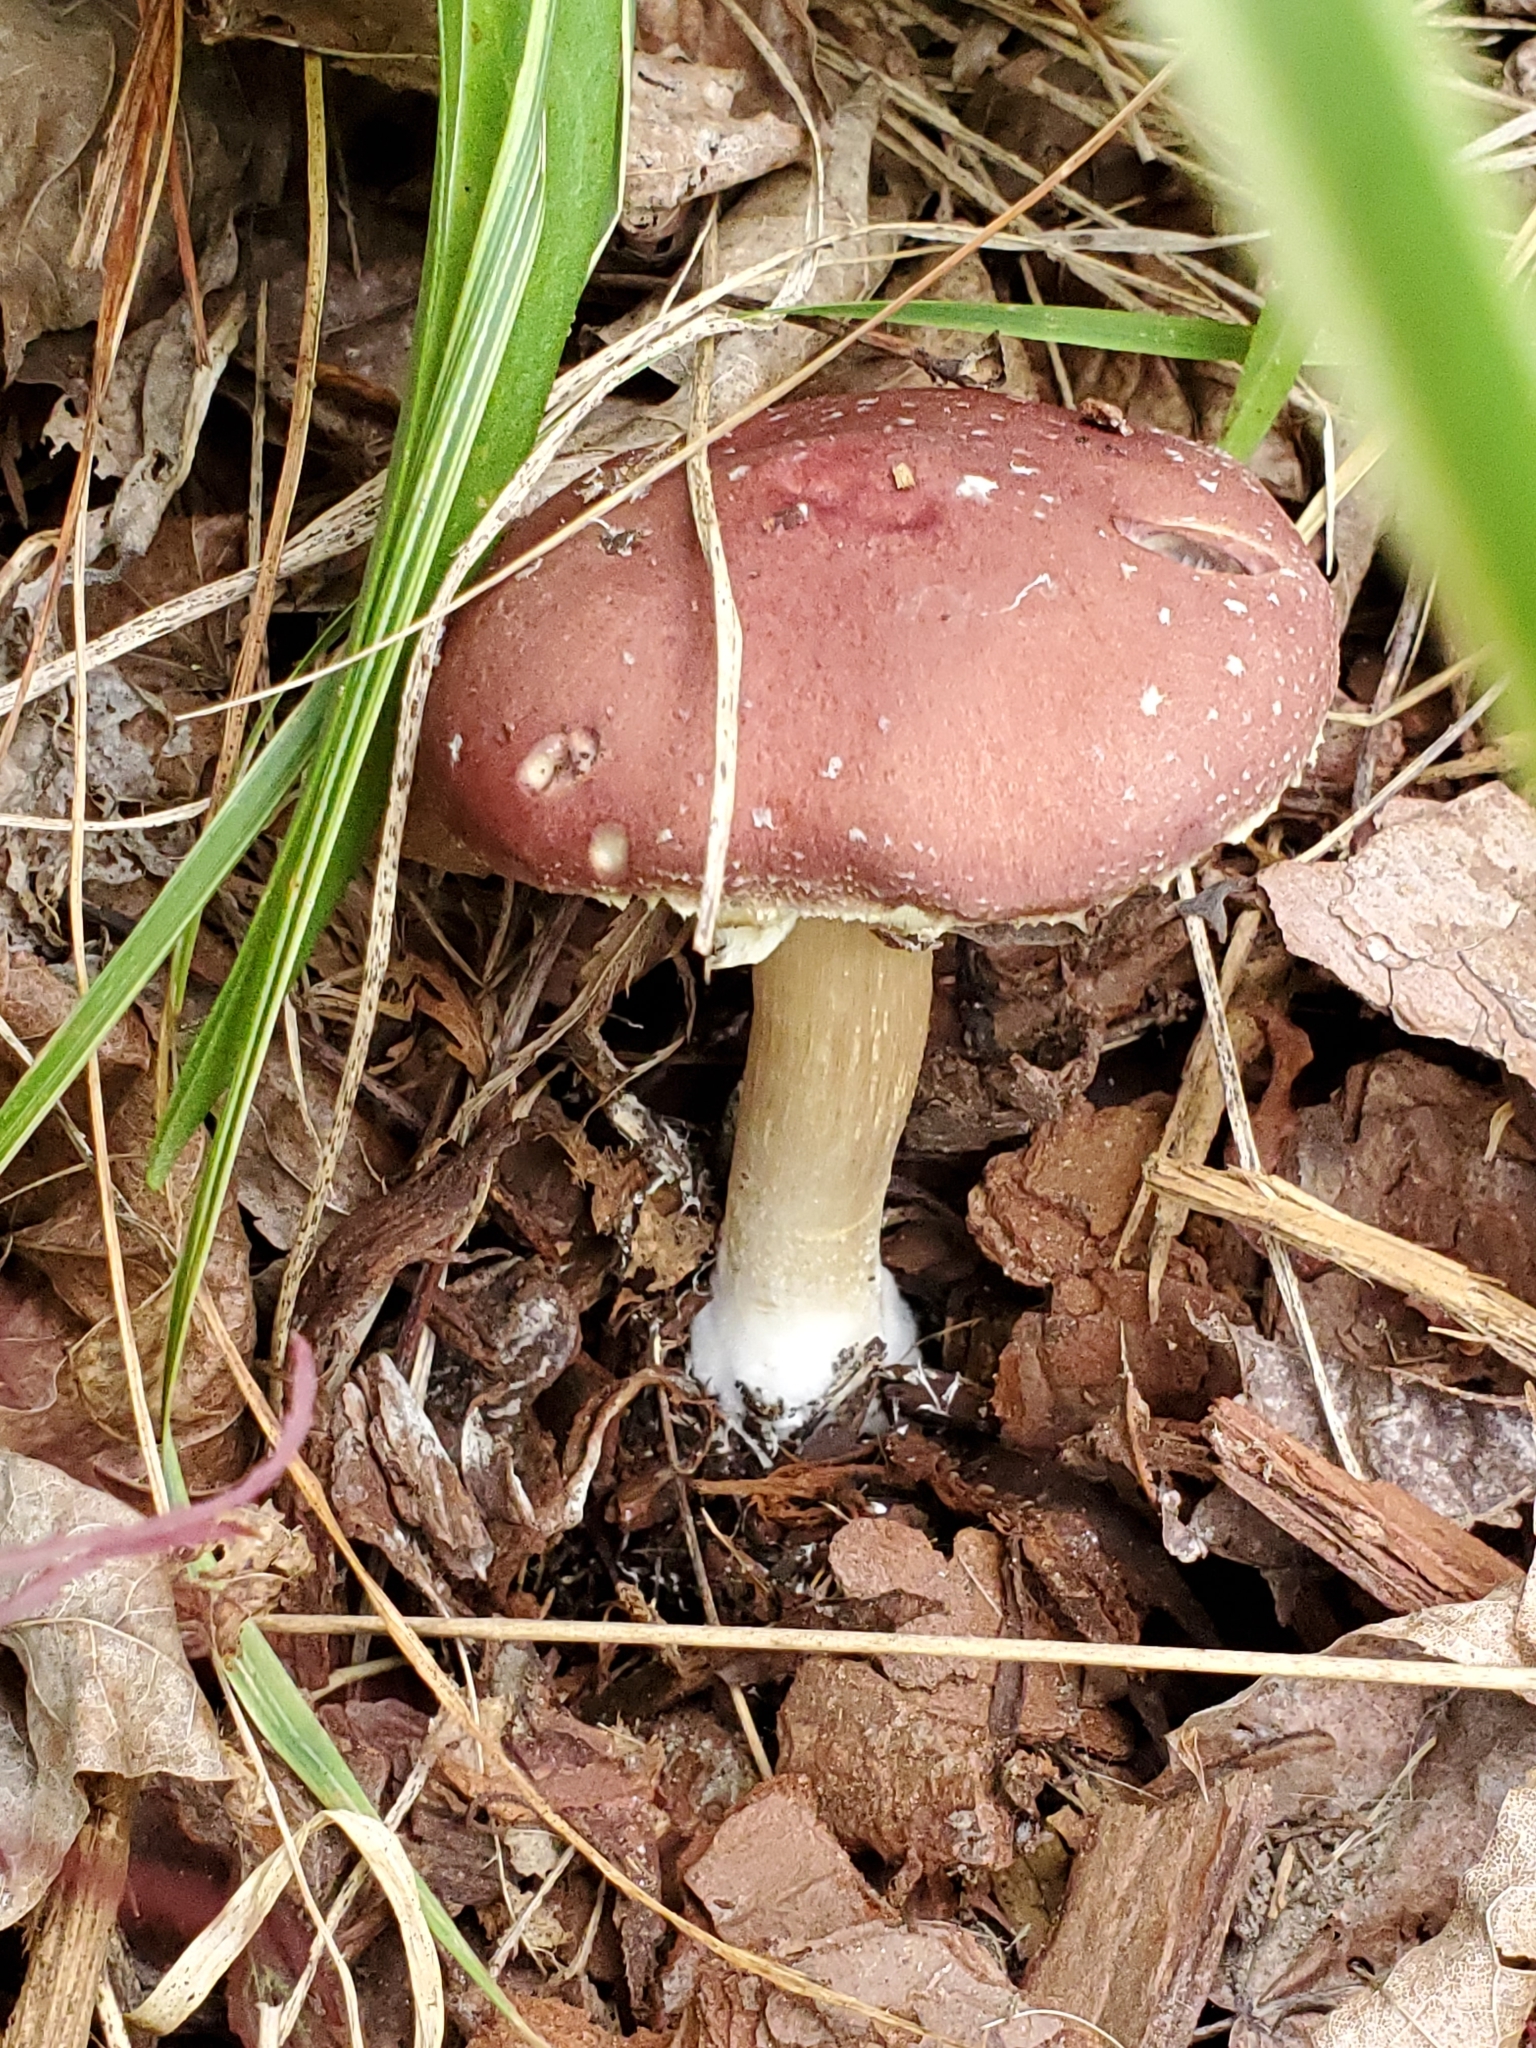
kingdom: Fungi
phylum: Basidiomycota
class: Agaricomycetes
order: Agaricales
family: Strophariaceae
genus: Stropharia
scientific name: Stropharia rugosoannulata
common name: Wine roundhead
